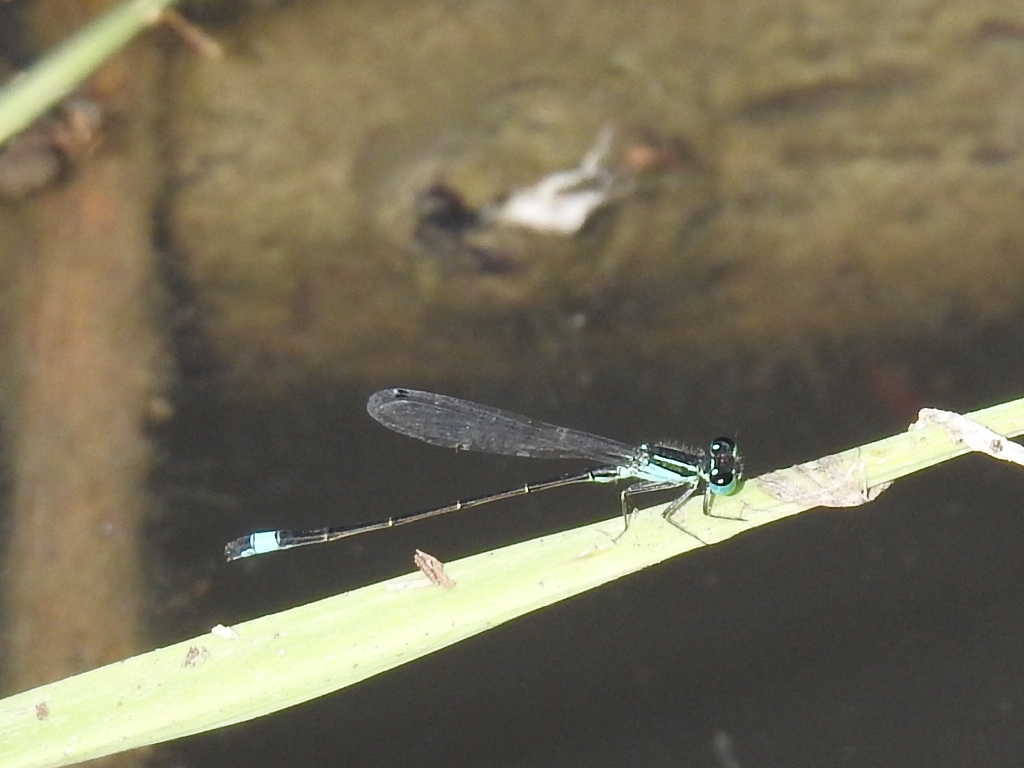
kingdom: Animalia
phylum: Arthropoda
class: Insecta
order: Odonata
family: Coenagrionidae
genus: Ischnura
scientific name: Ischnura elegans
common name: Blue-tailed damselfly
